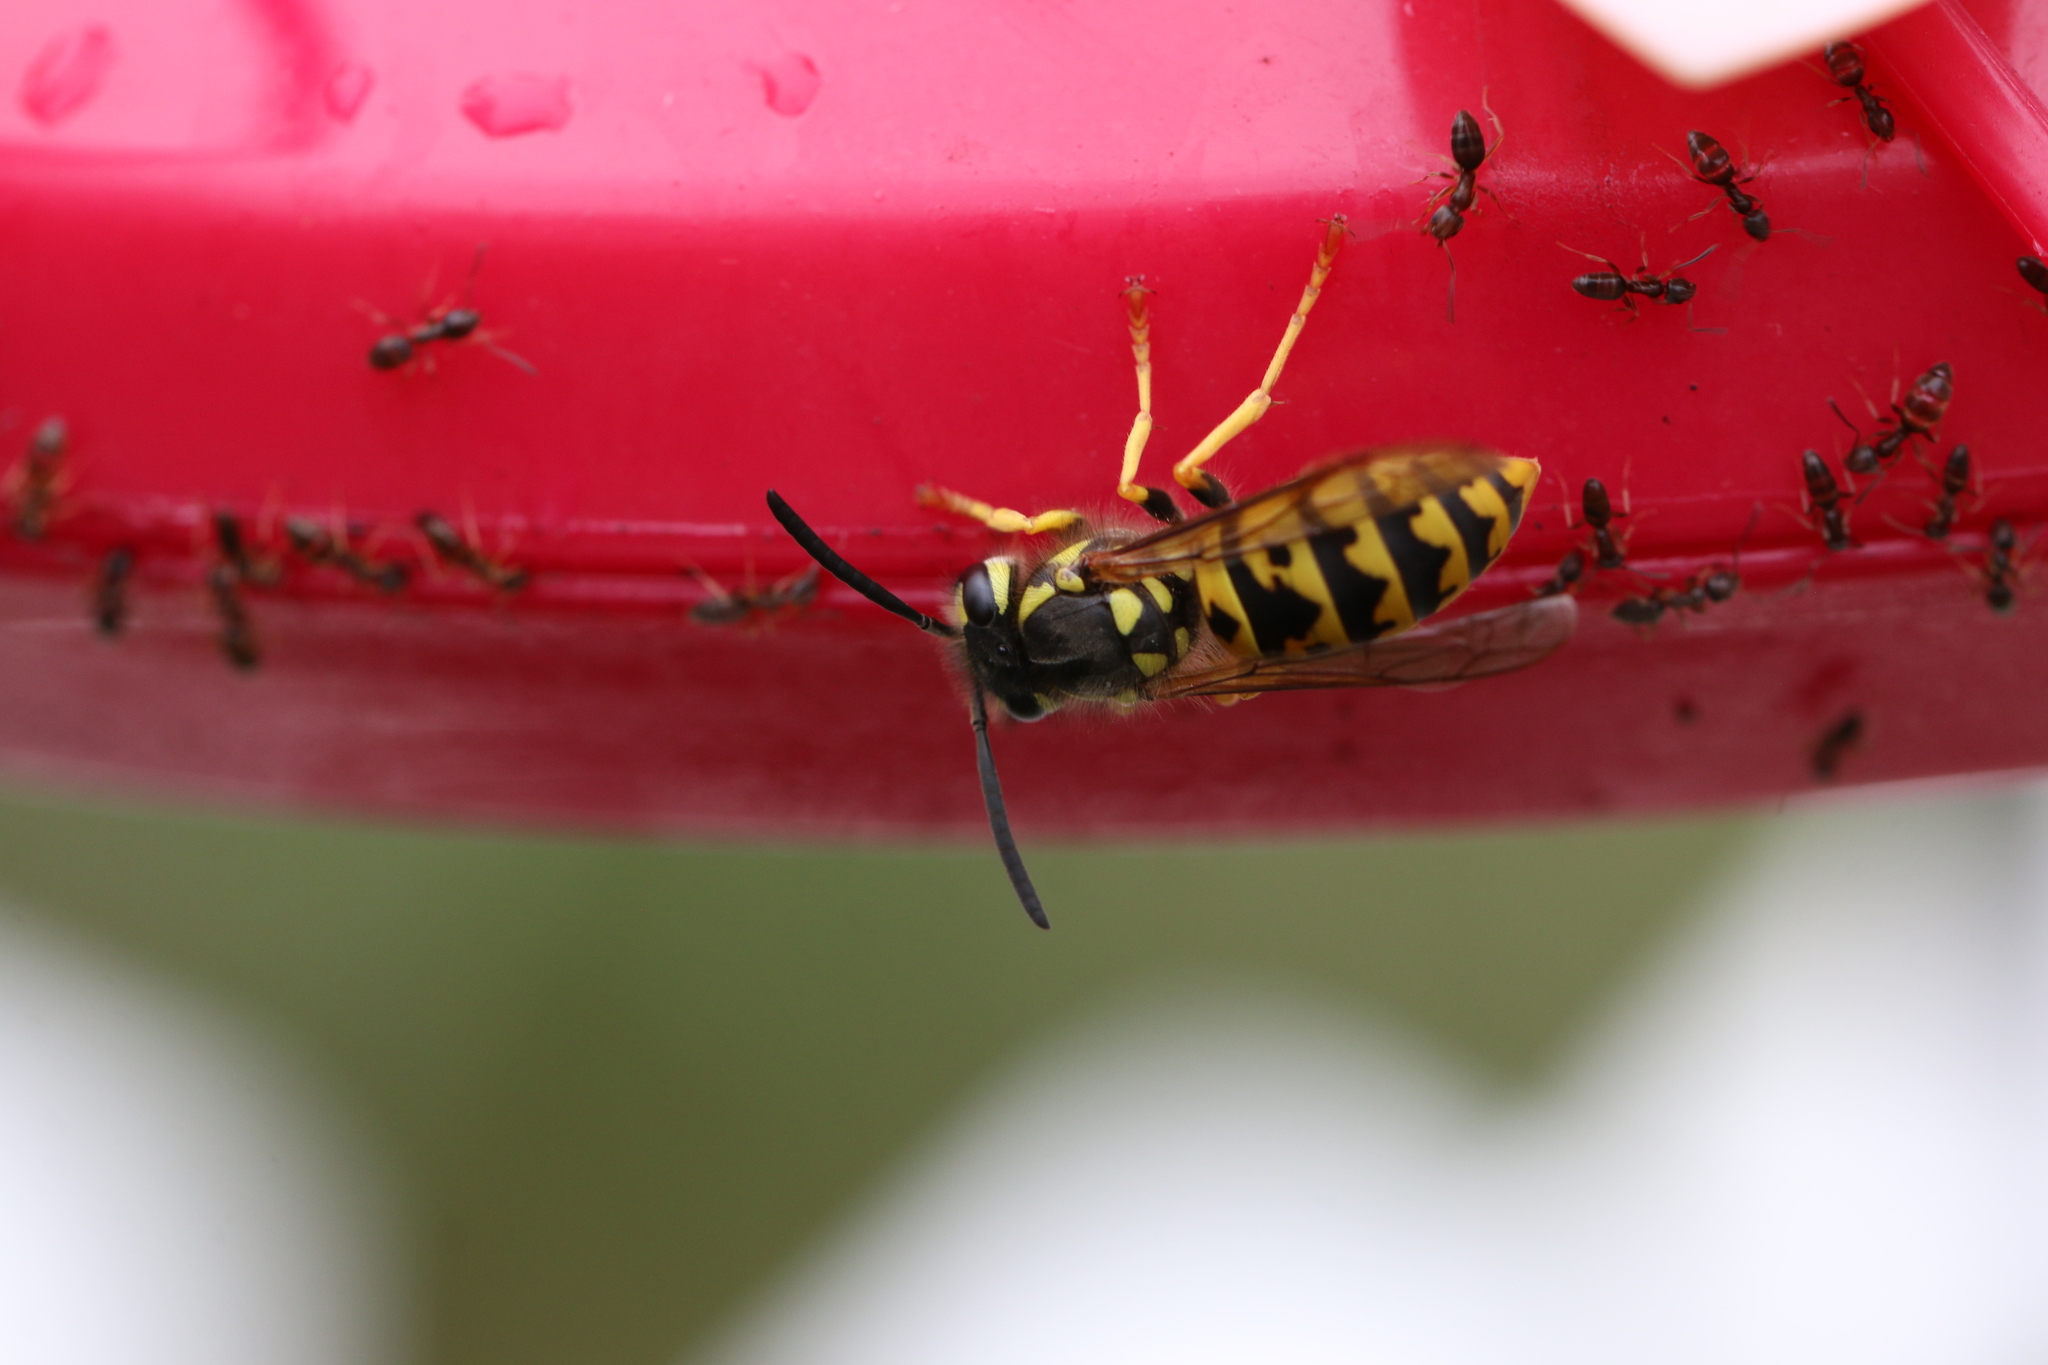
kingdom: Animalia
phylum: Arthropoda
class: Insecta
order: Hymenoptera
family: Vespidae
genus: Vespula
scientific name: Vespula germanica
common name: German wasp
